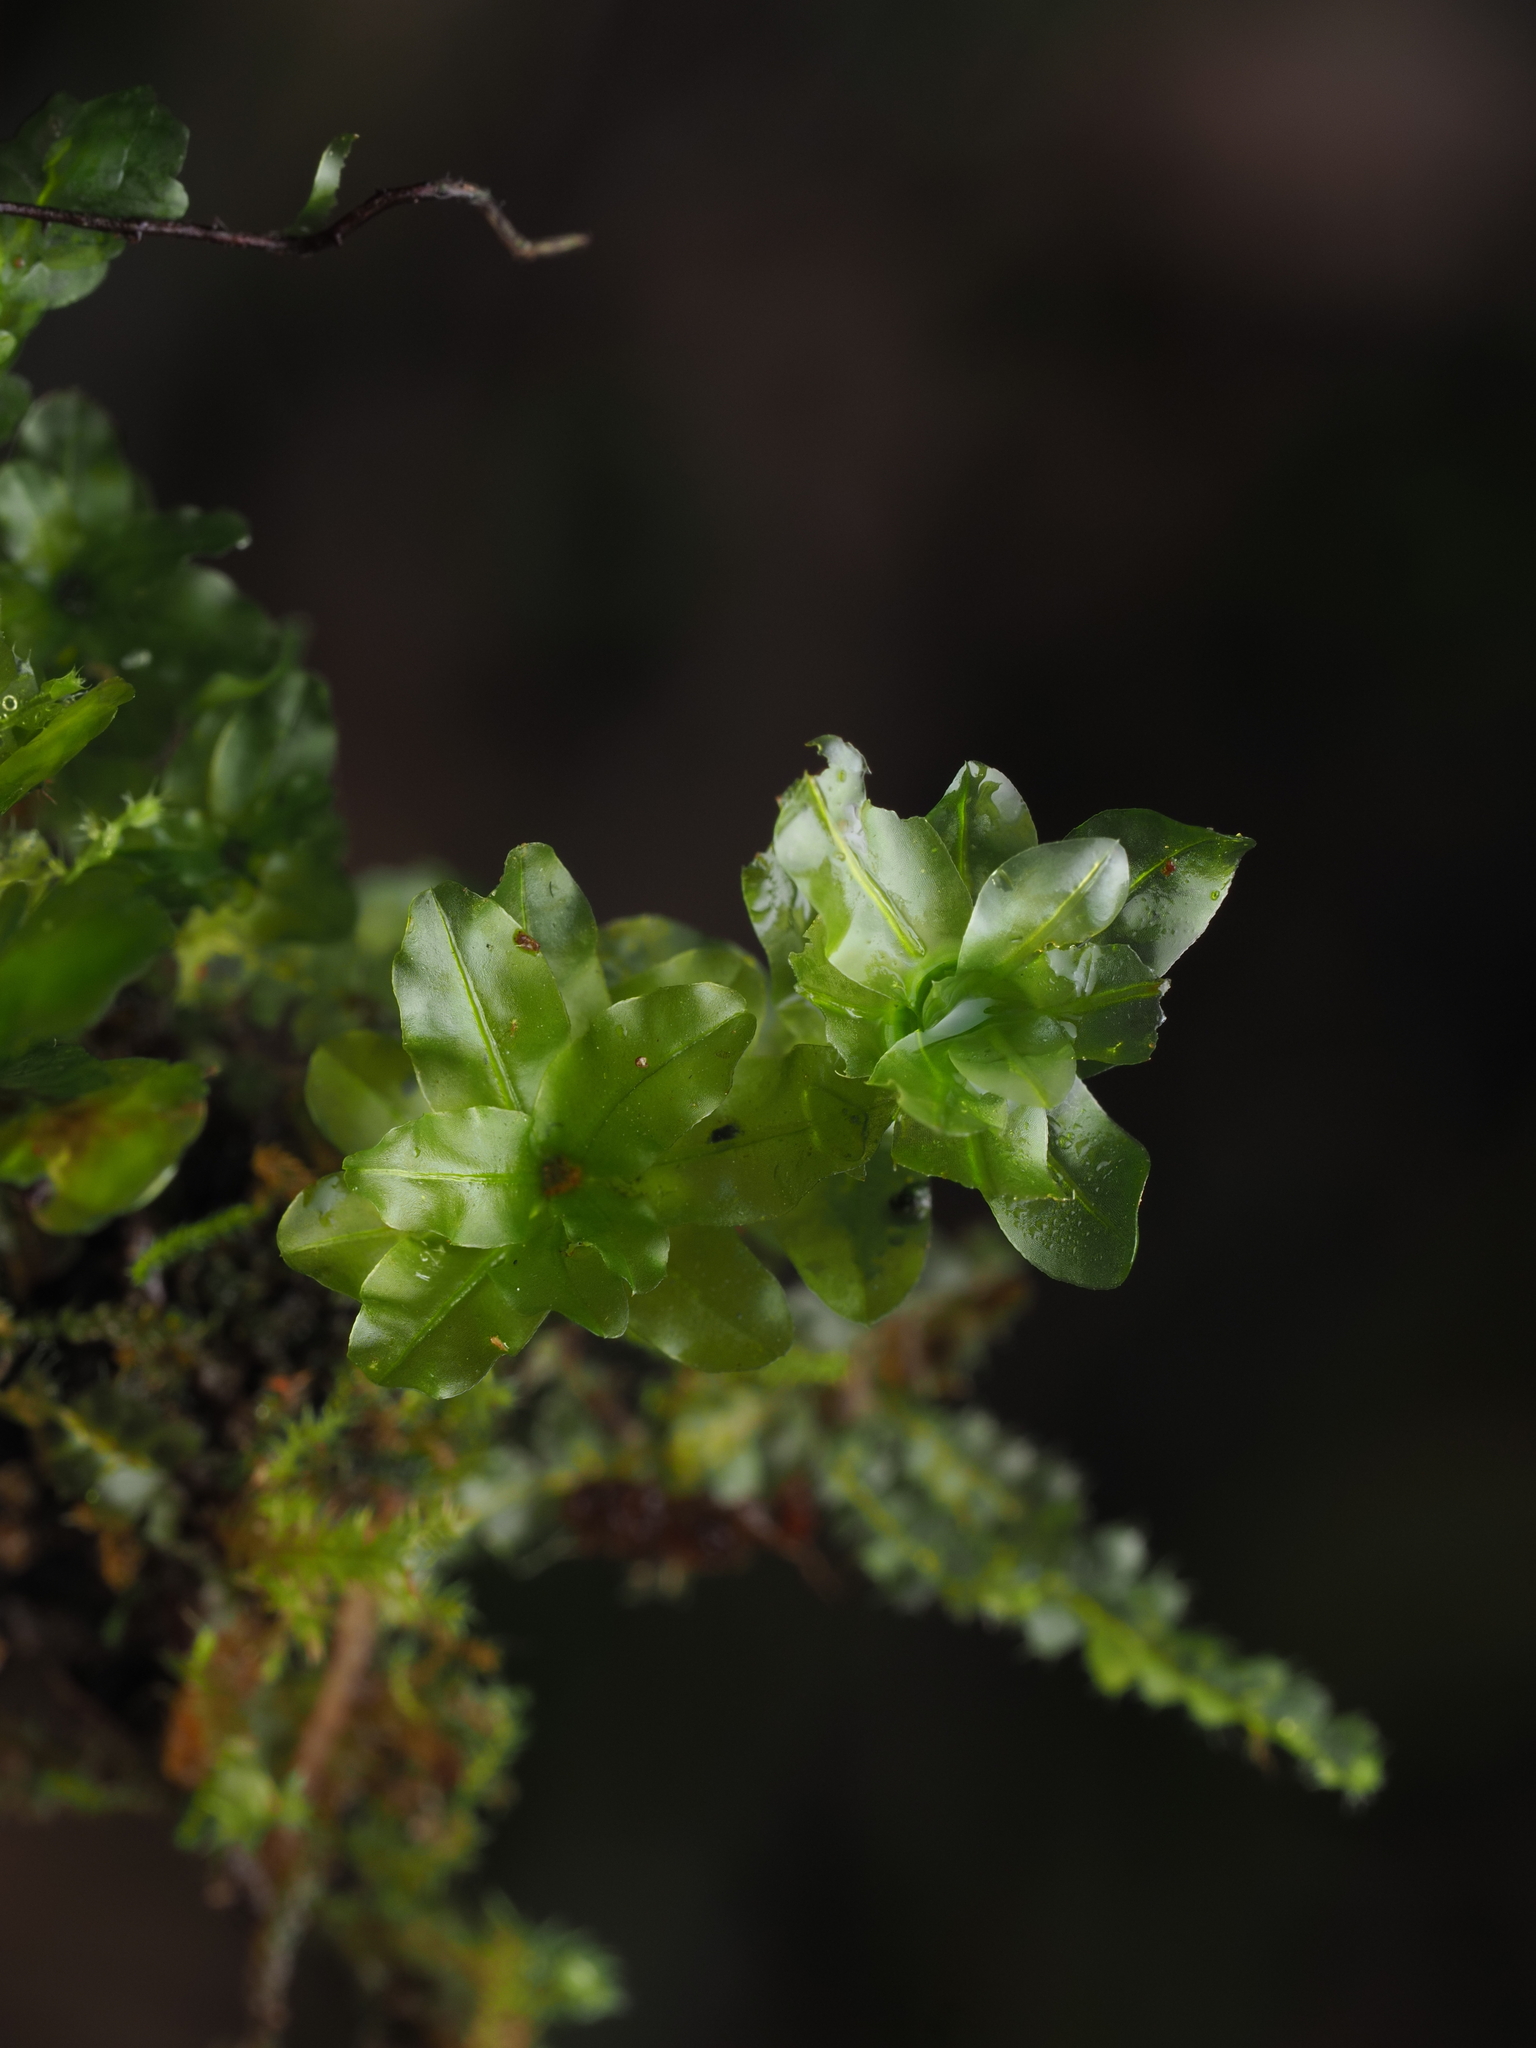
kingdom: Plantae
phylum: Bryophyta
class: Bryopsida
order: Bryales
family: Mniaceae
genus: Plagiomnium
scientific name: Plagiomnium novae-zealandiae
